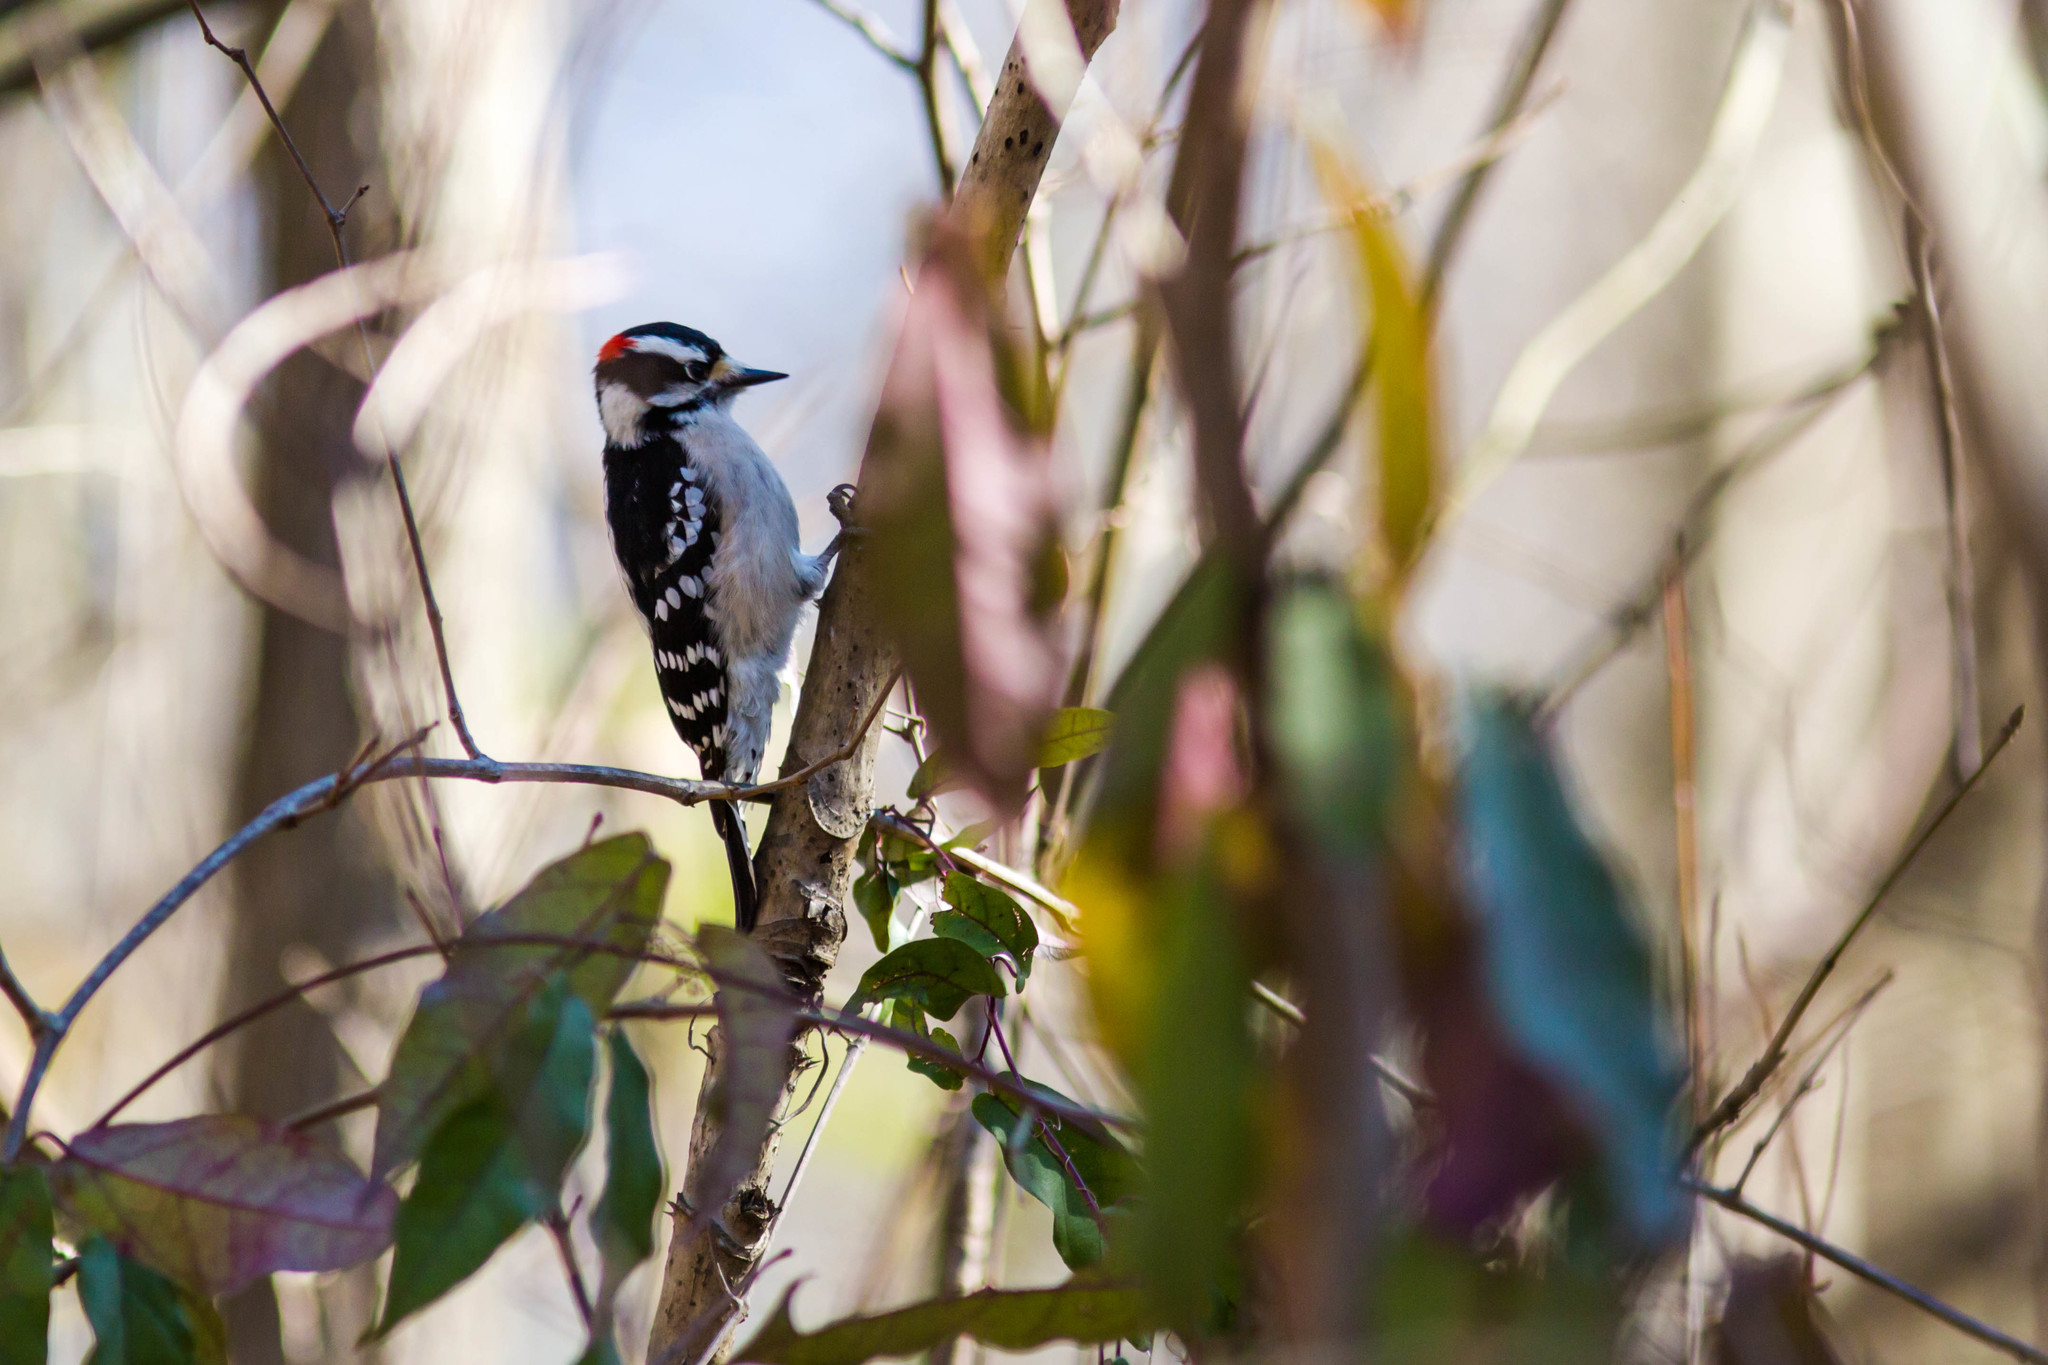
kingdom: Animalia
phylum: Chordata
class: Aves
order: Piciformes
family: Picidae
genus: Dryobates
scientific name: Dryobates pubescens
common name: Downy woodpecker
